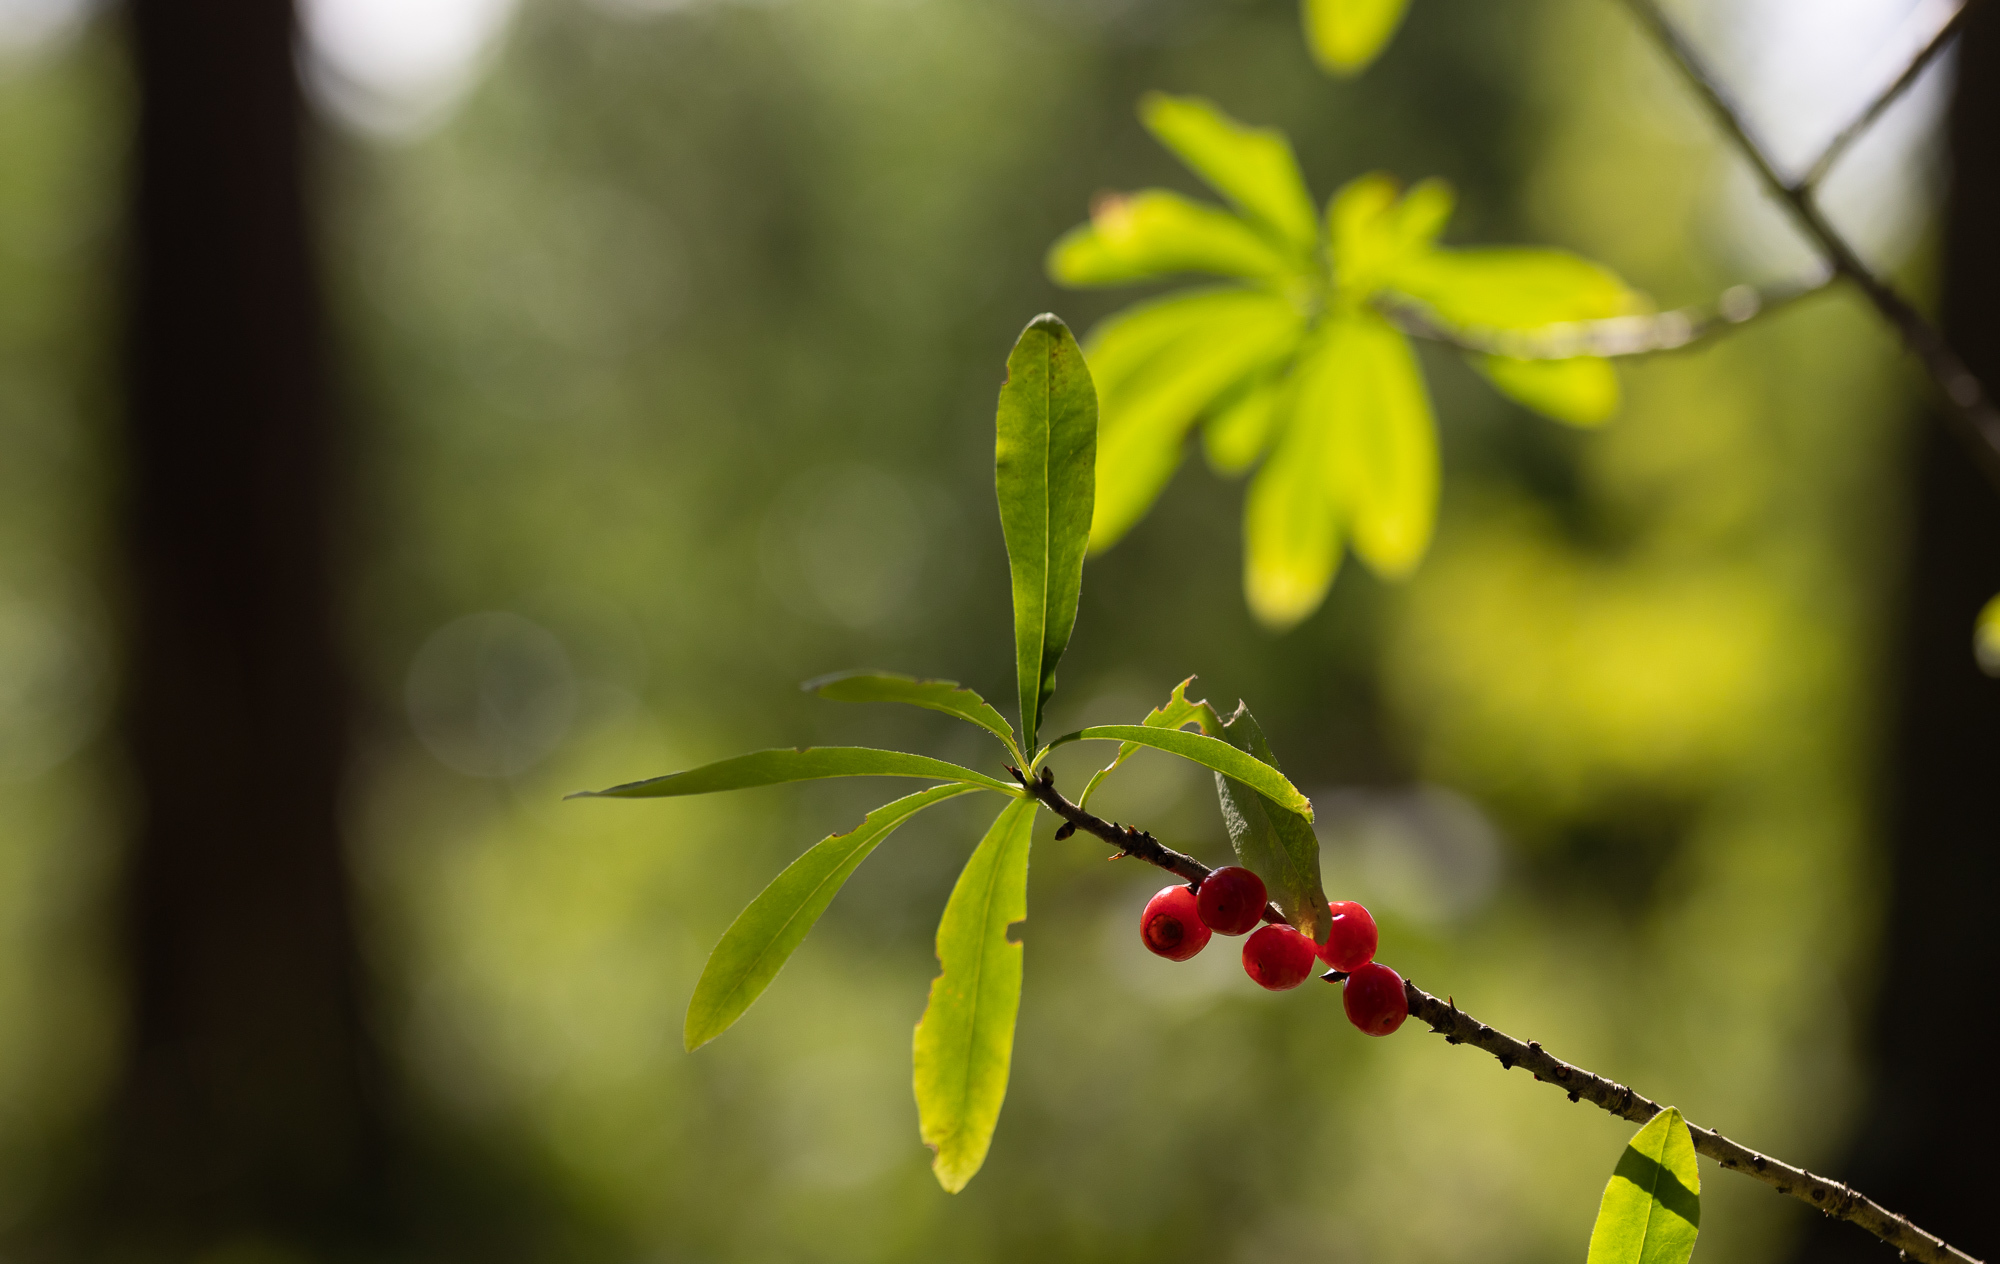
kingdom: Plantae
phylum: Tracheophyta
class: Magnoliopsida
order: Malvales
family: Thymelaeaceae
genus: Daphne
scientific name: Daphne mezereum
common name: Mezereon
